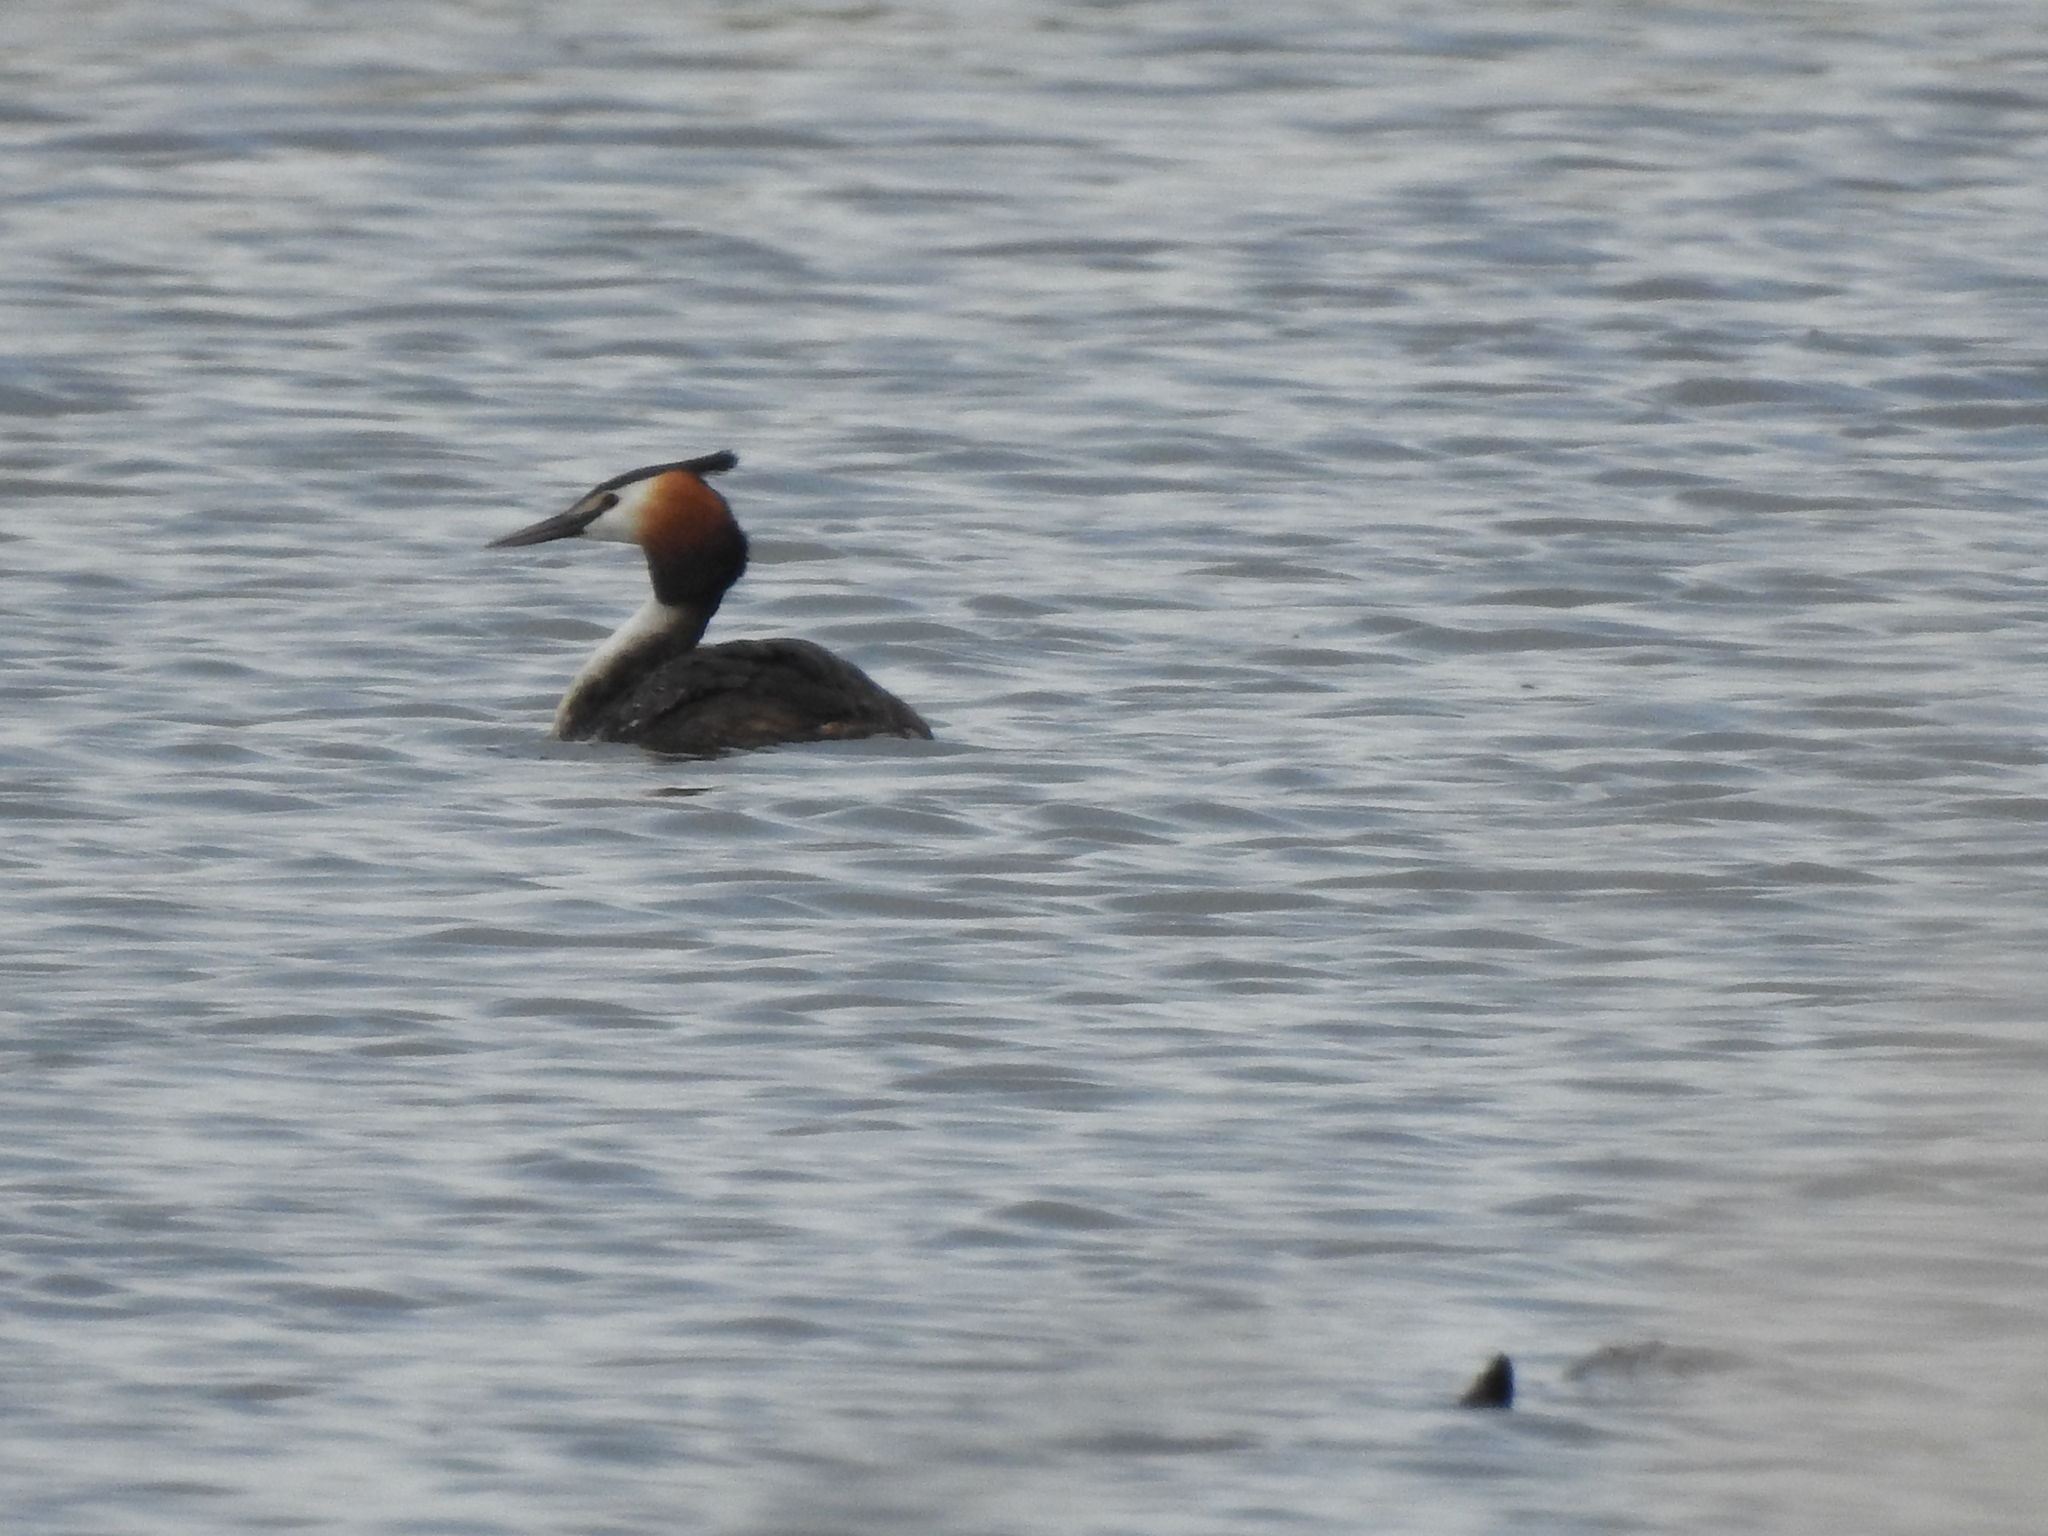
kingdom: Animalia
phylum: Chordata
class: Aves
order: Podicipediformes
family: Podicipedidae
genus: Podiceps
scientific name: Podiceps cristatus
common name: Great crested grebe
